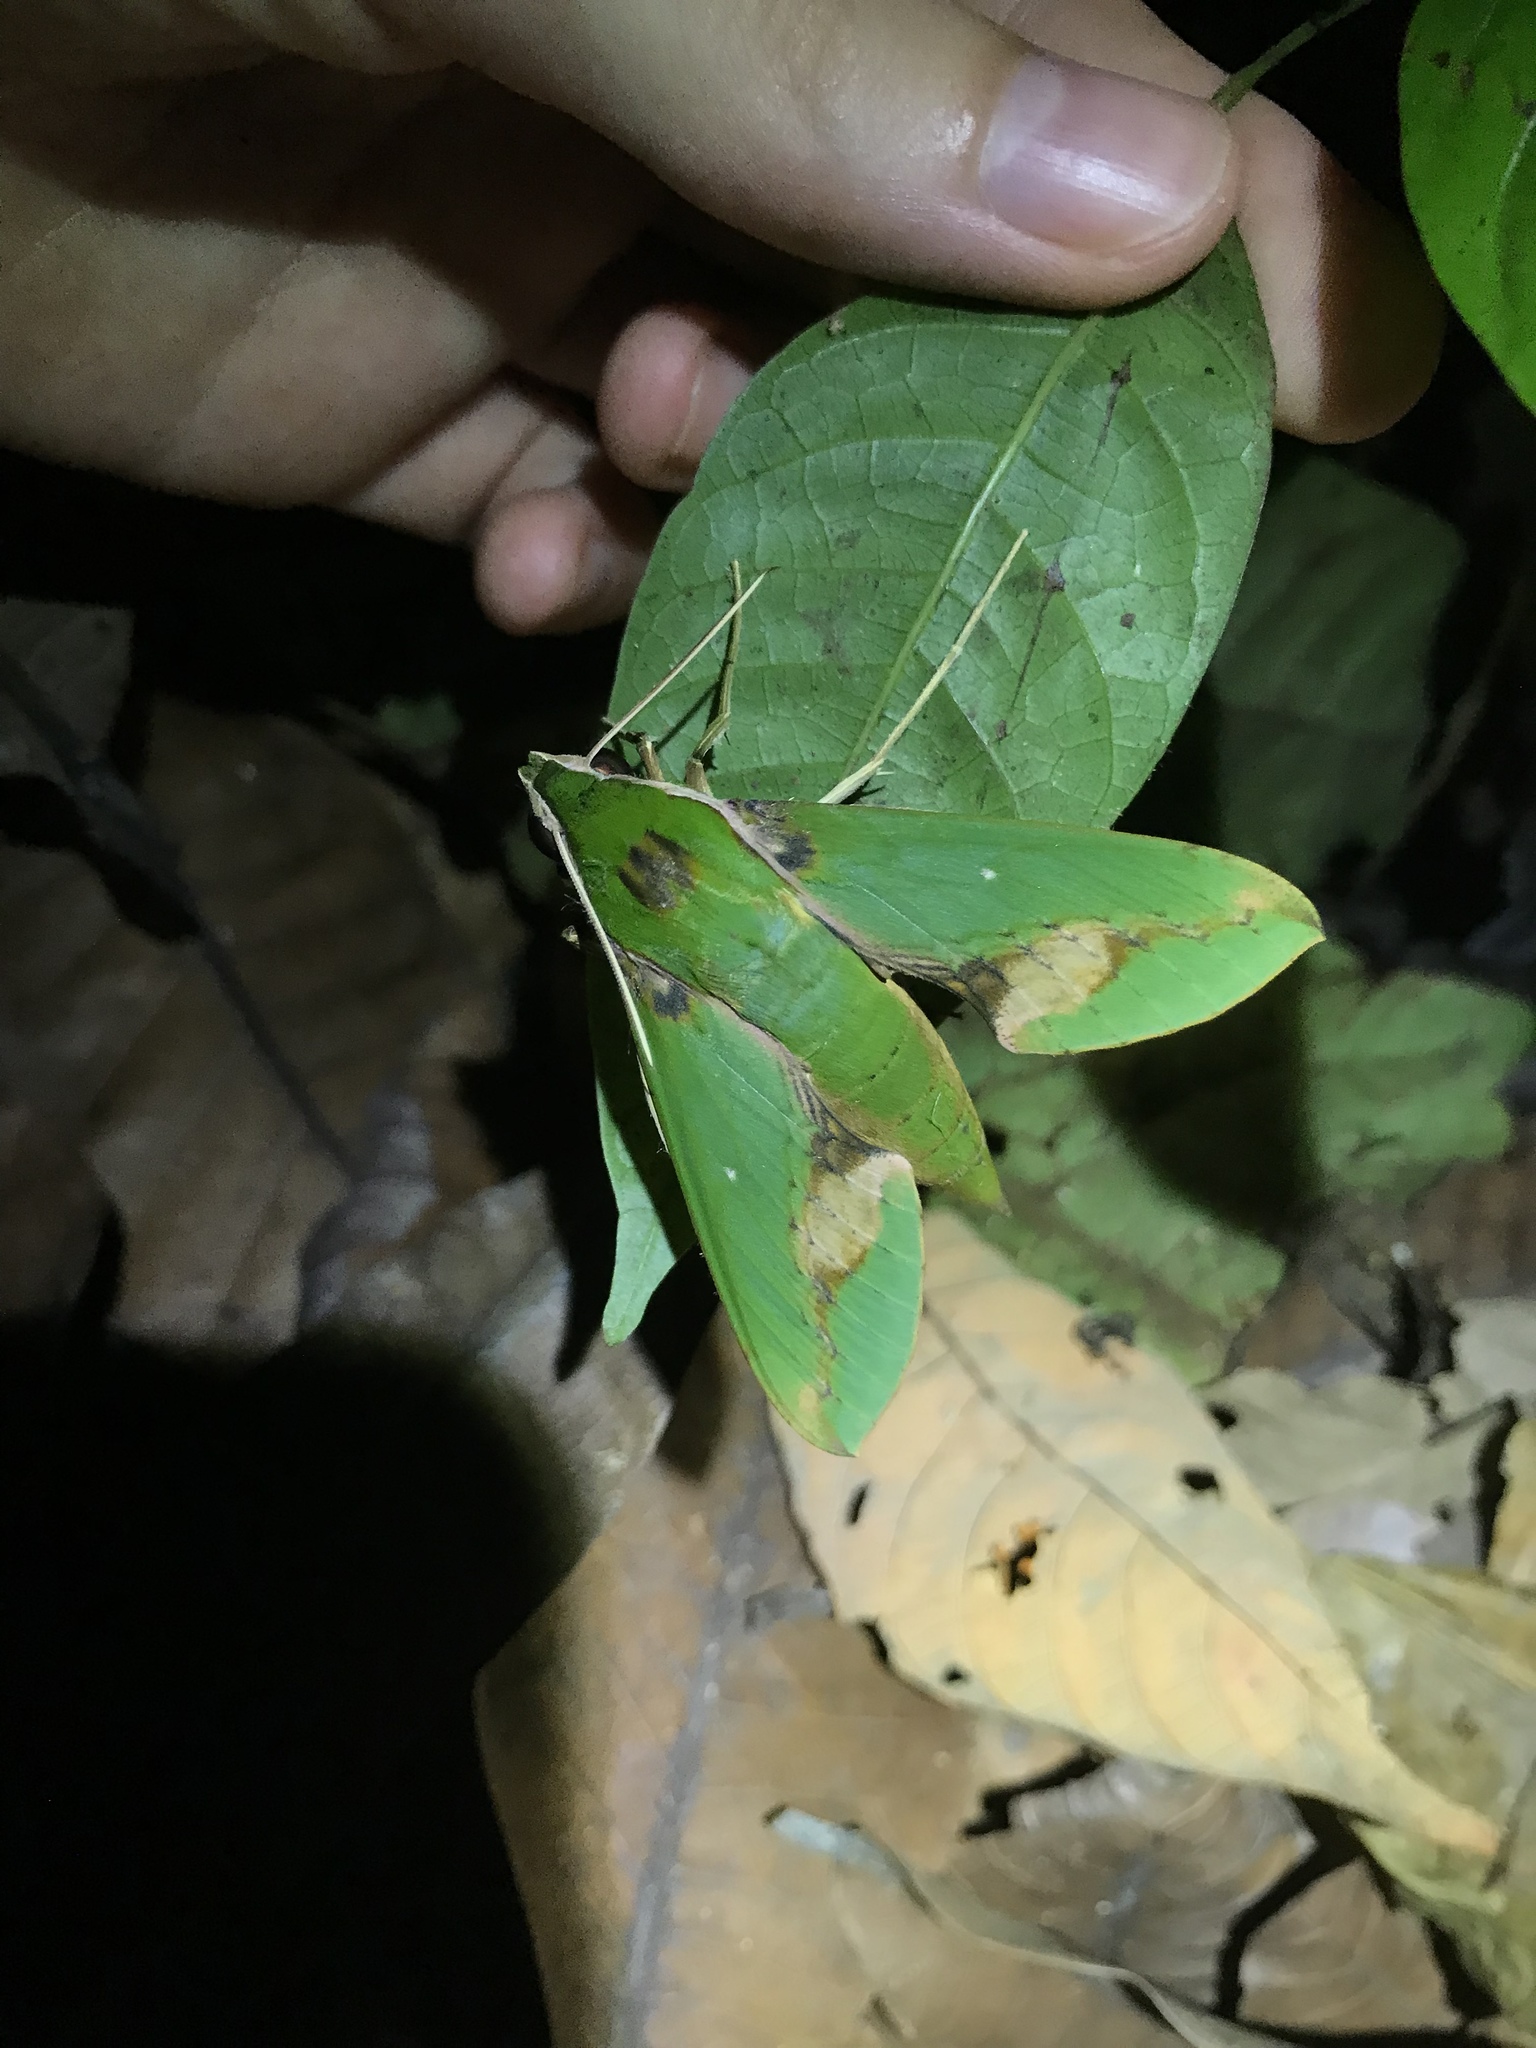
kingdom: Animalia
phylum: Arthropoda
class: Insecta
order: Lepidoptera
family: Sphingidae
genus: Xylophanes
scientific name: Xylophanes chiron
